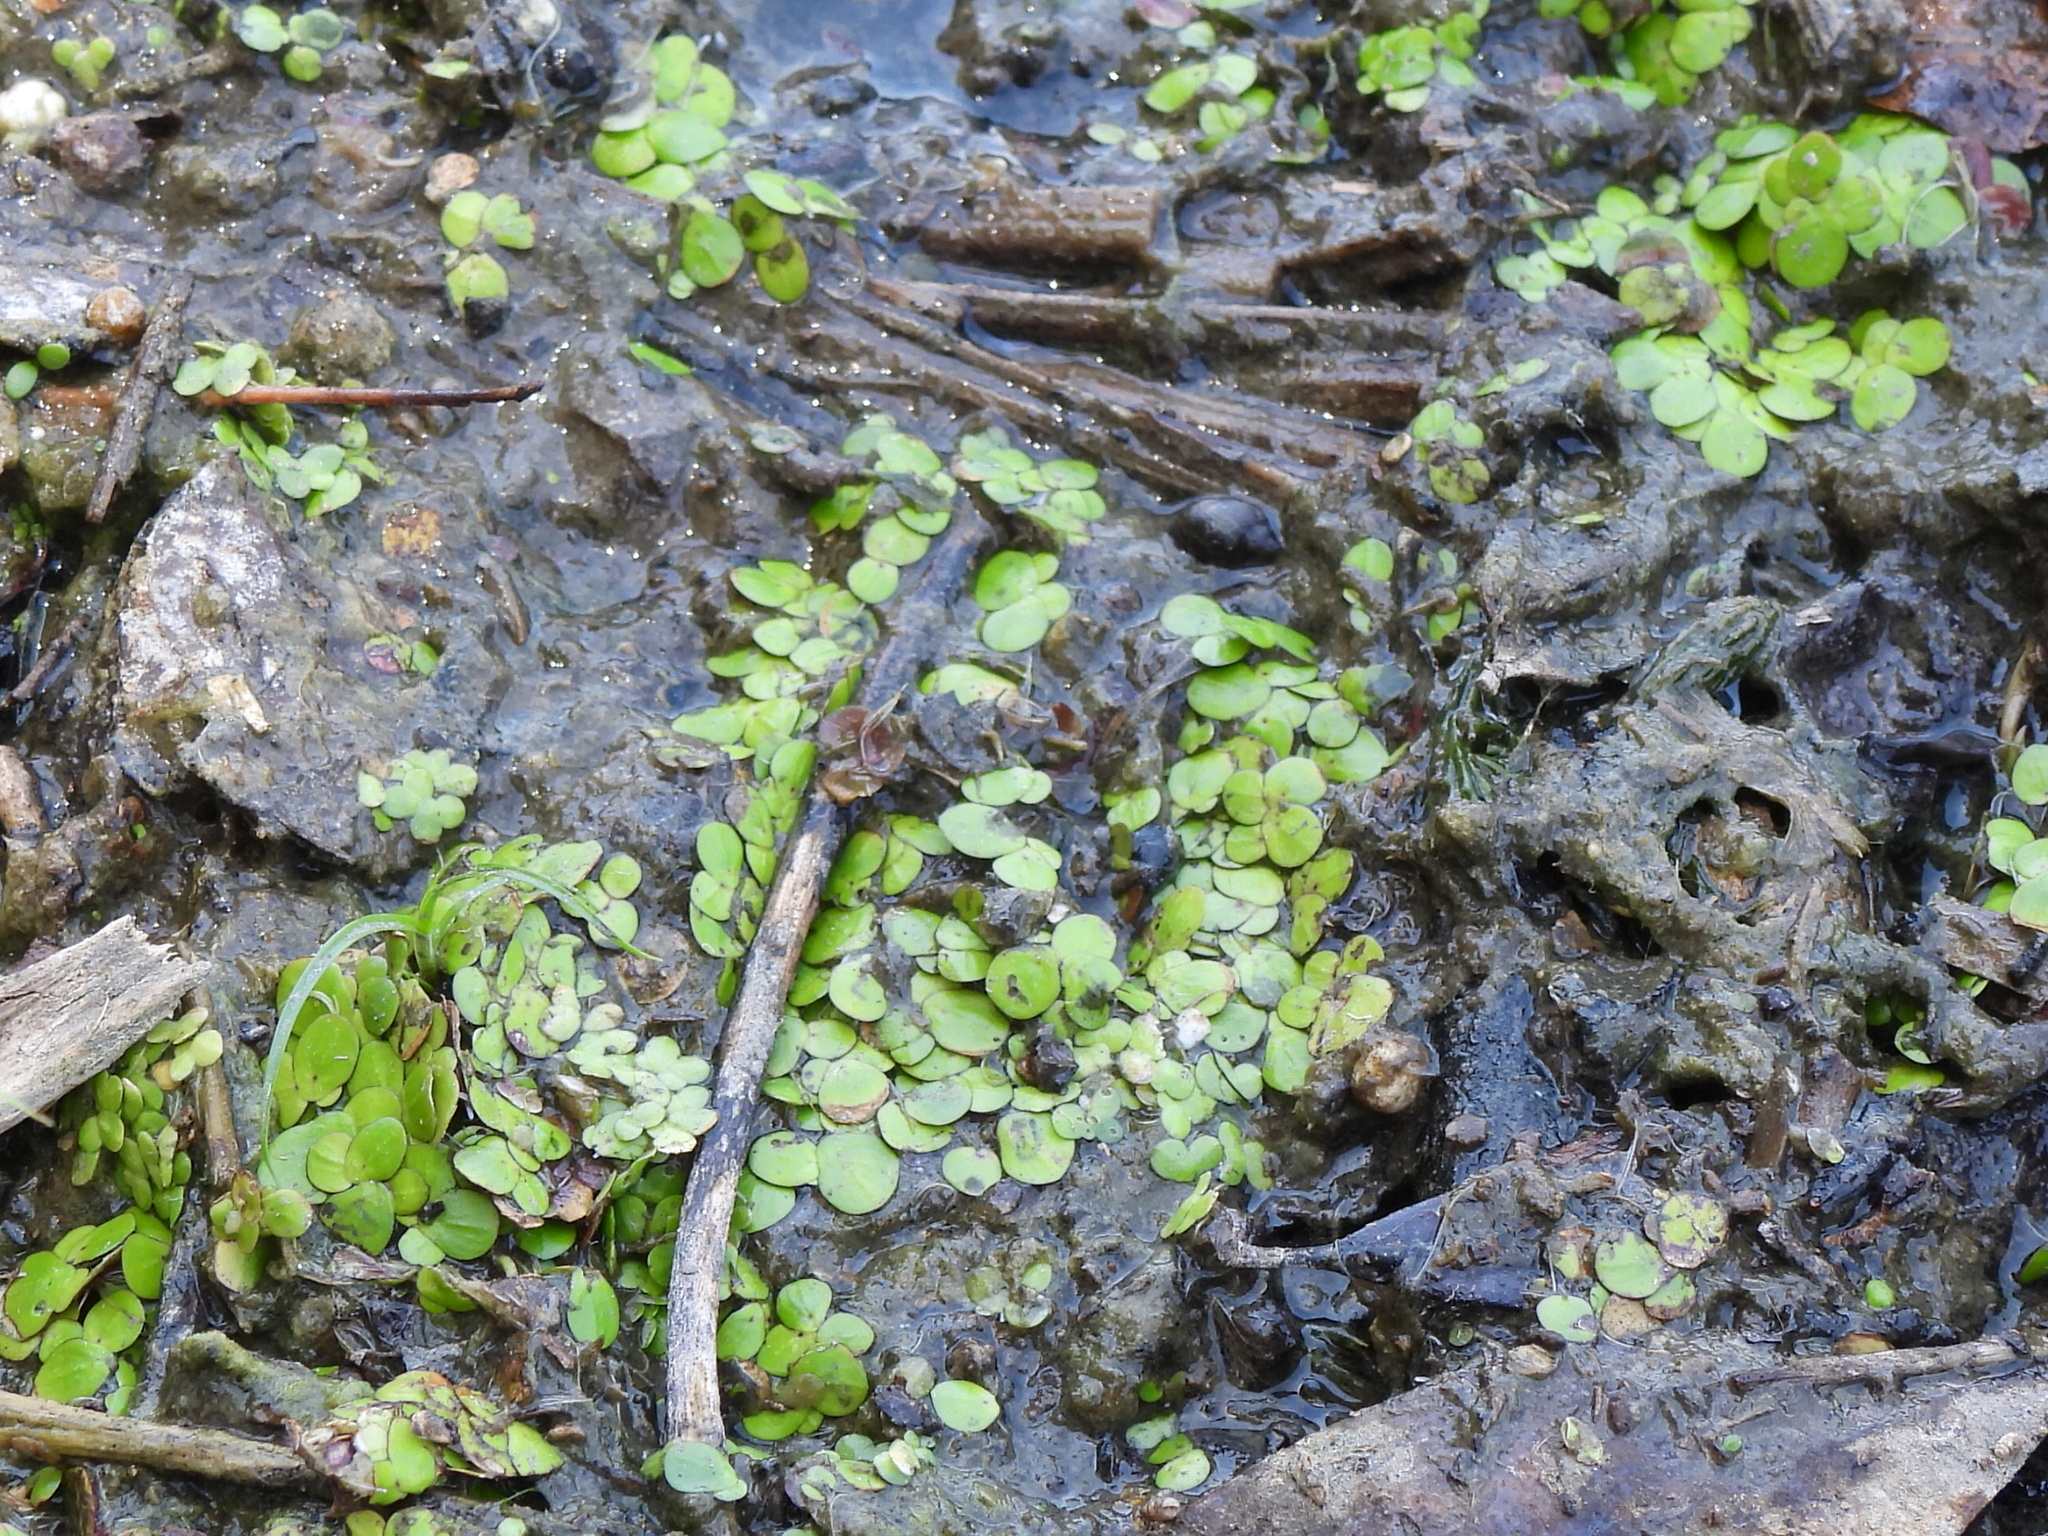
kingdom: Plantae
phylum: Tracheophyta
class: Liliopsida
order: Alismatales
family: Araceae
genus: Spirodela
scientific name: Spirodela polyrhiza
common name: Great duckweed
